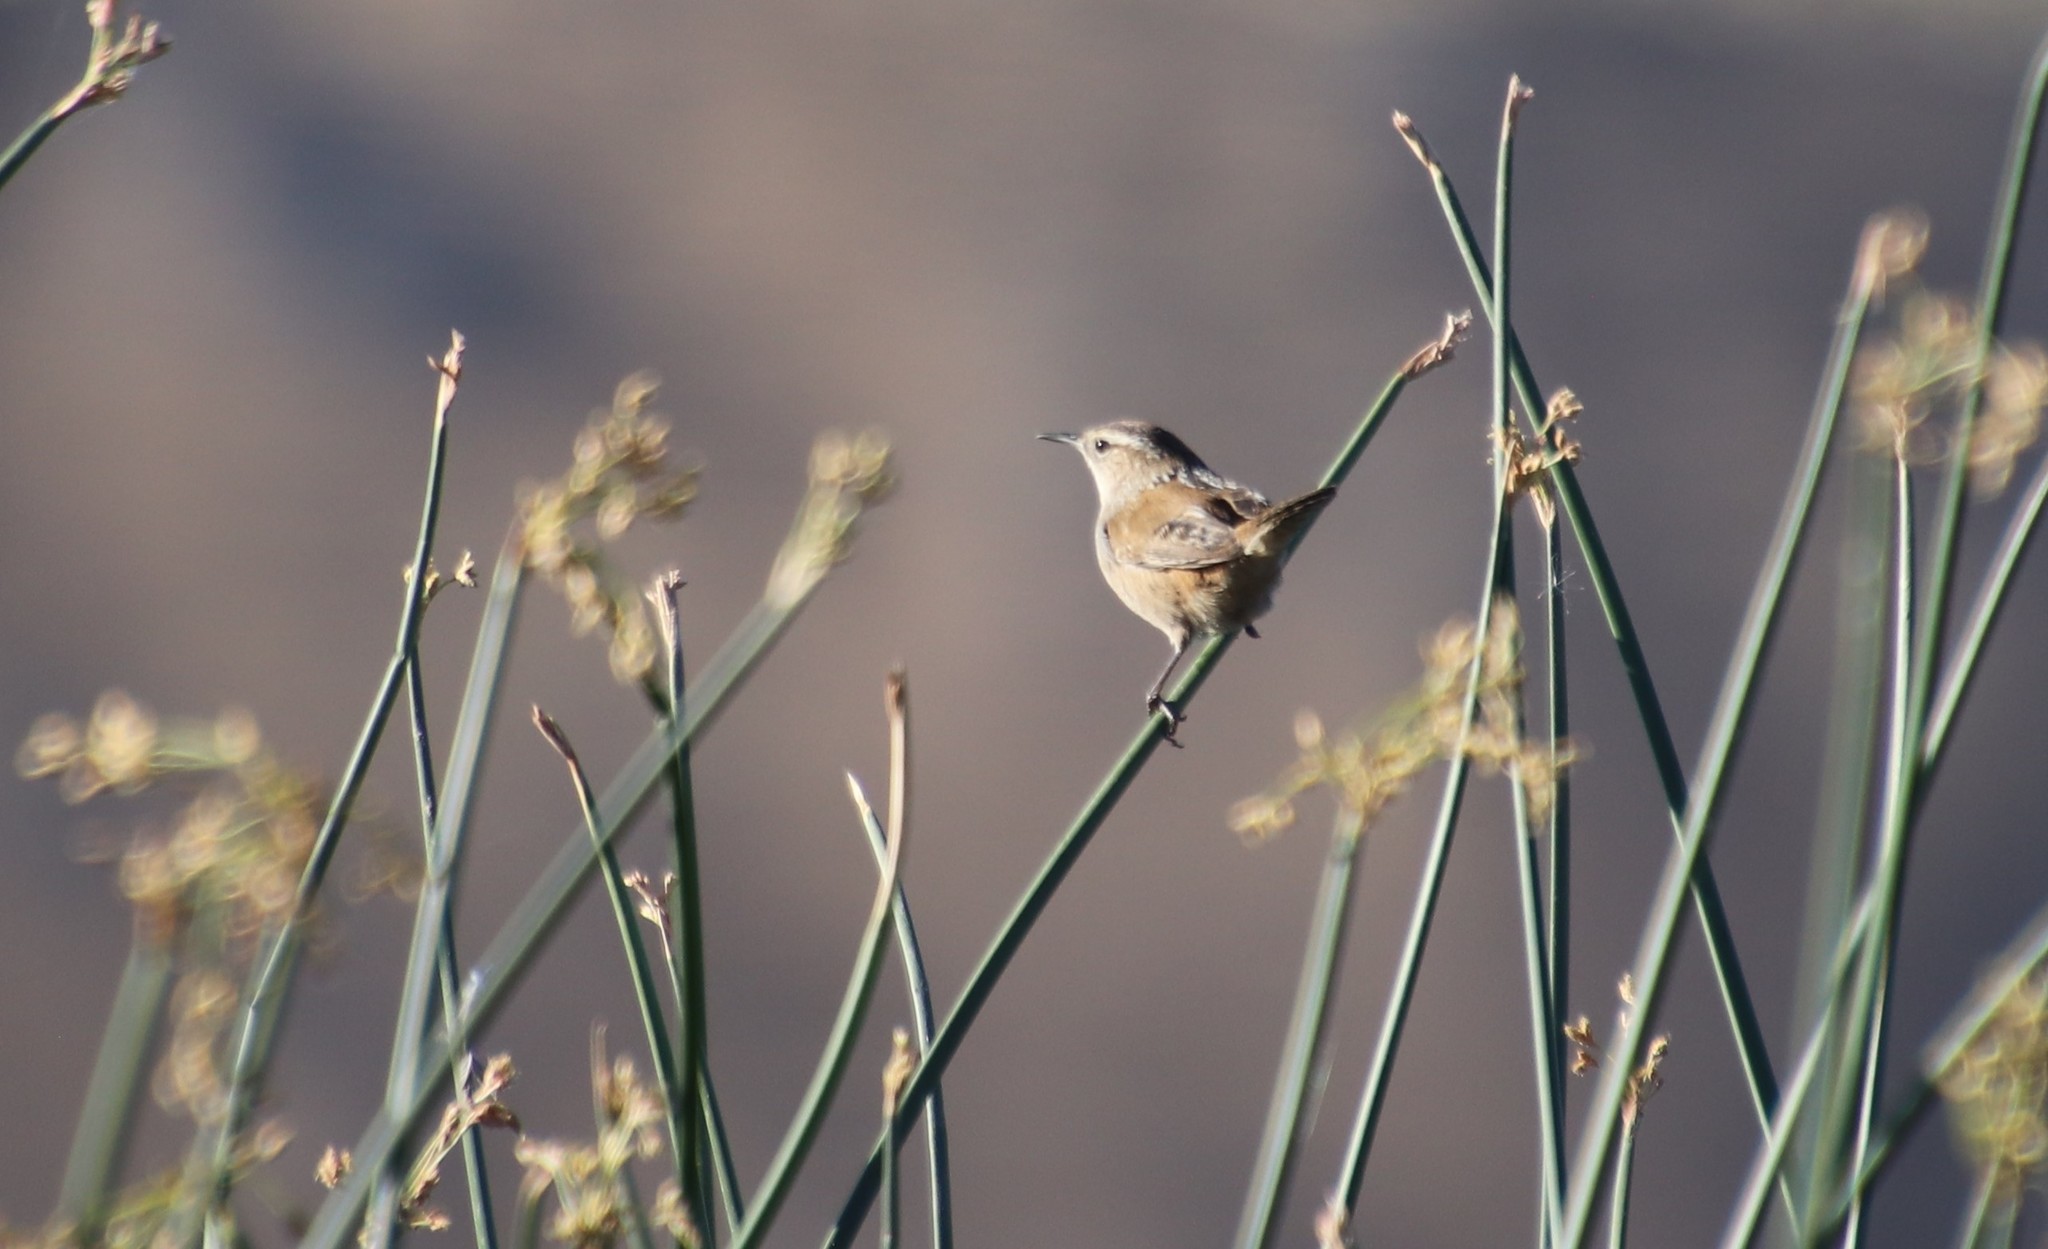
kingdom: Animalia
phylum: Chordata
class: Aves
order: Passeriformes
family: Troglodytidae
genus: Cistothorus
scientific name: Cistothorus palustris
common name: Marsh wren
